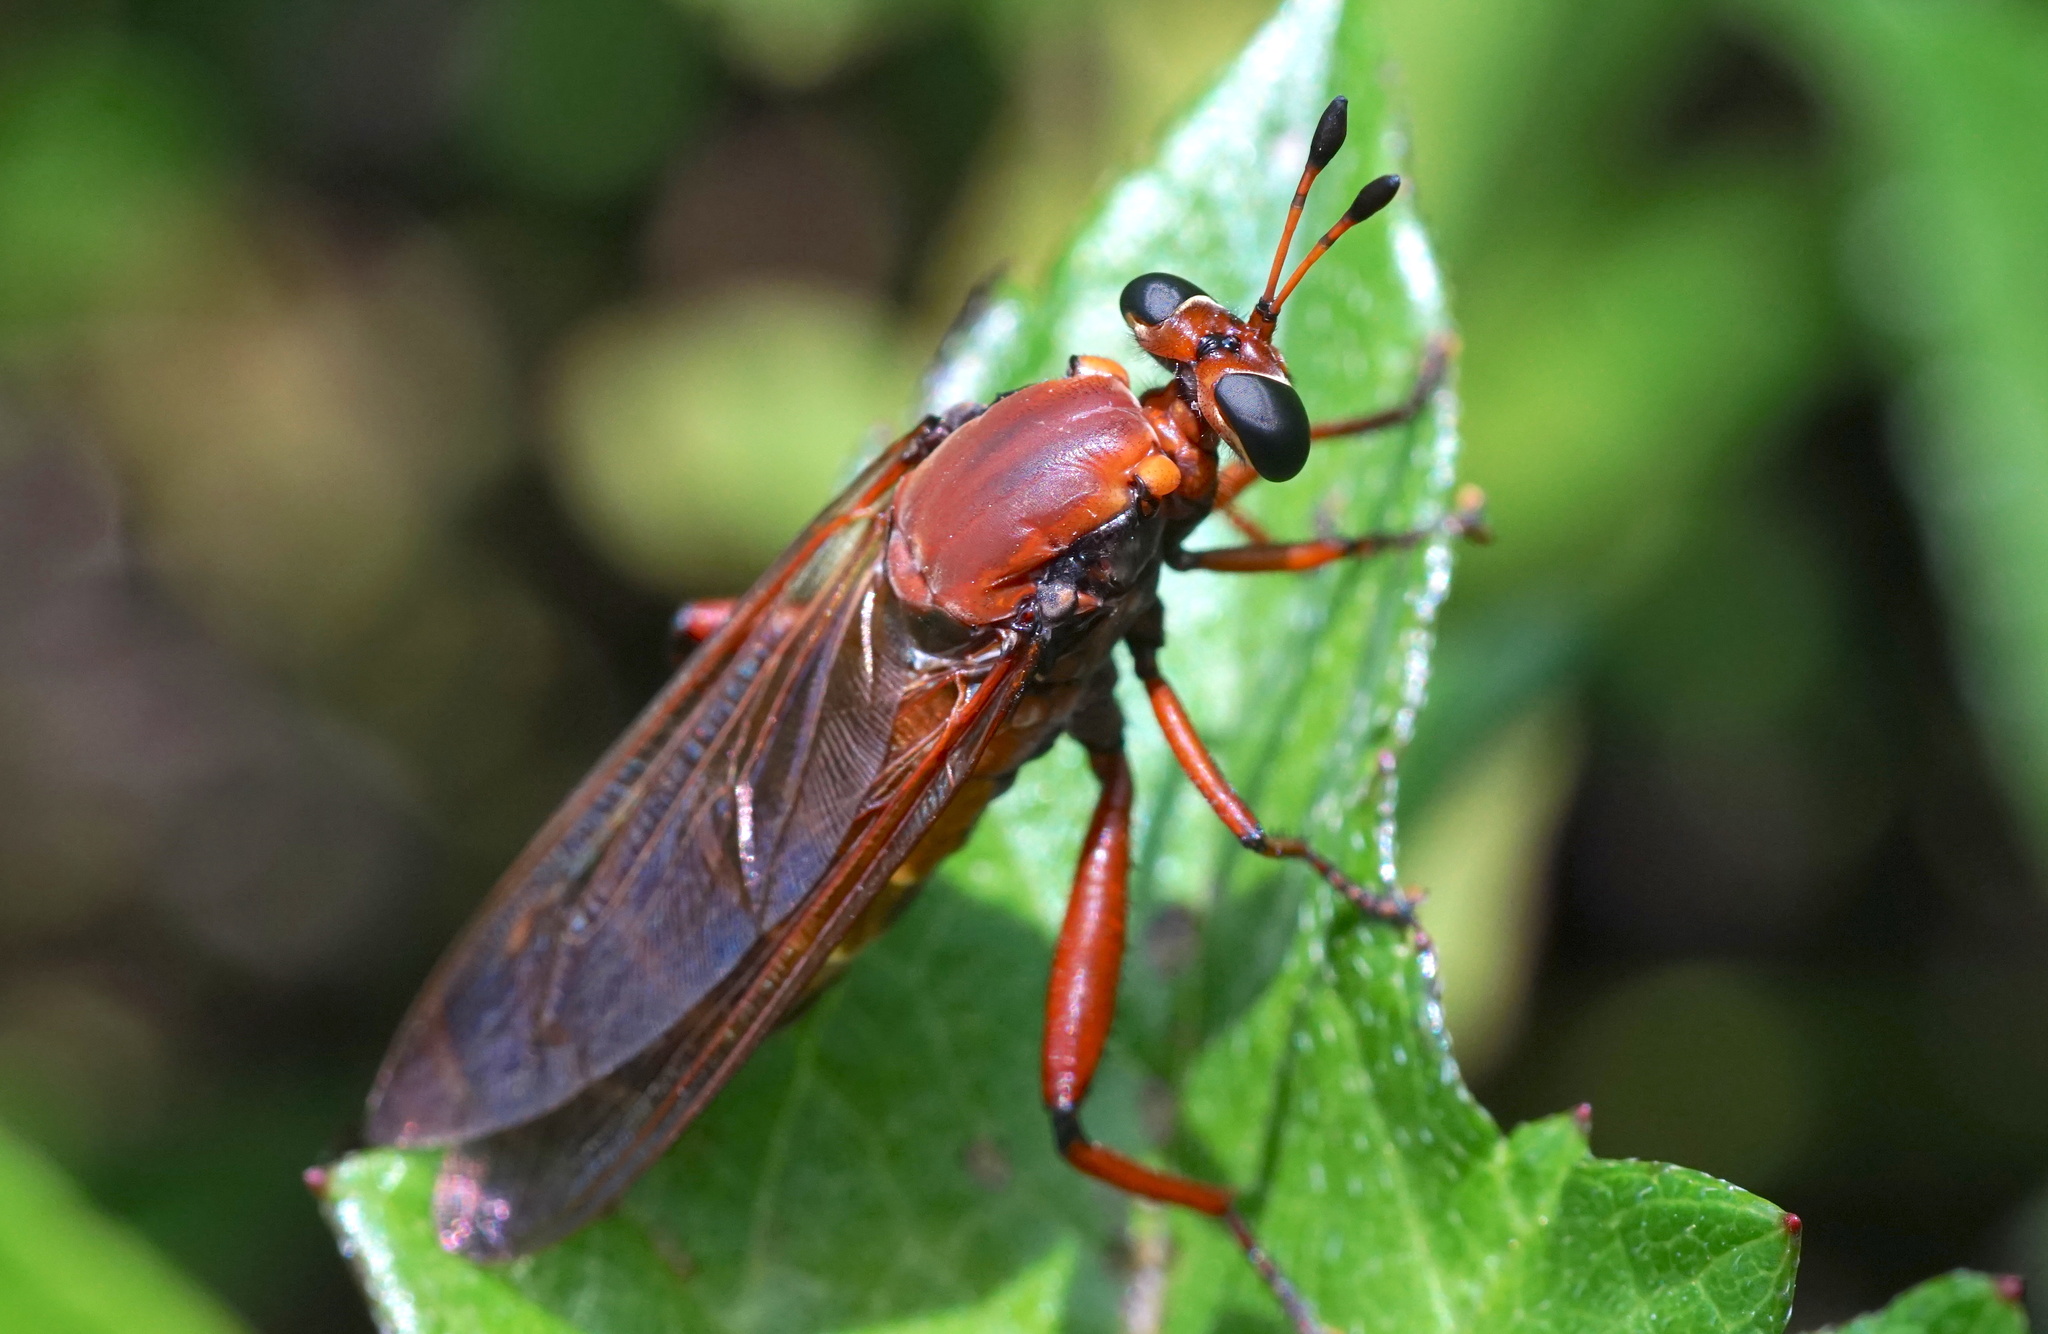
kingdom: Animalia
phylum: Arthropoda
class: Insecta
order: Diptera
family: Mydidae
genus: Mydas
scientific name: Mydas maculiventris
